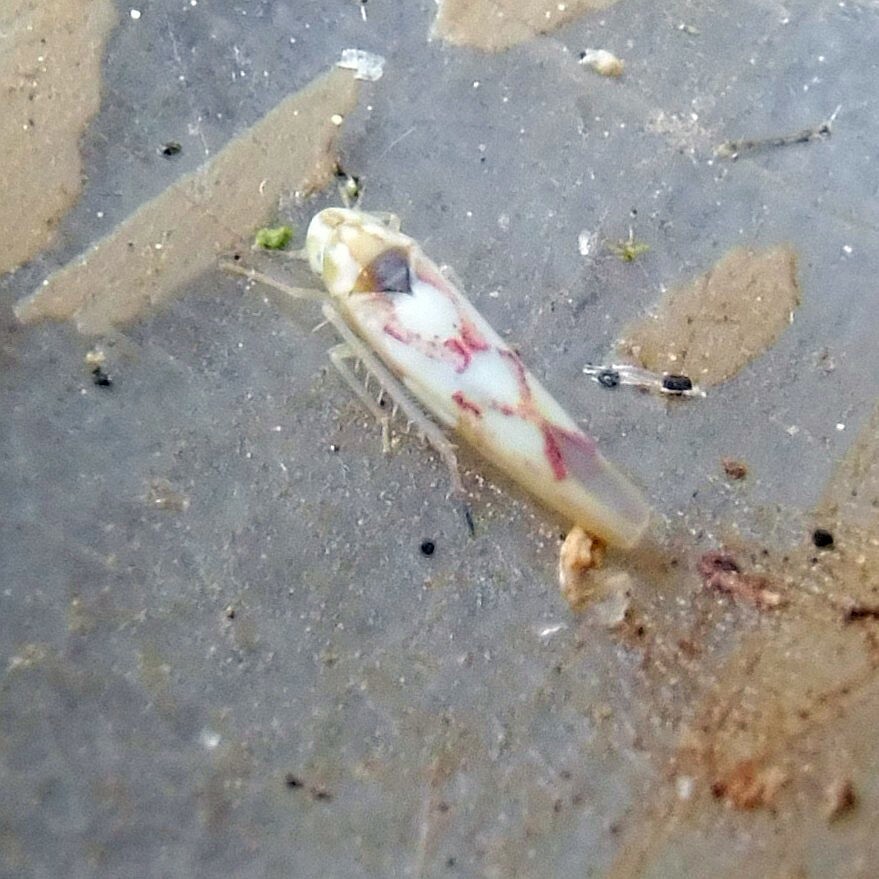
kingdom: Animalia
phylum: Arthropoda
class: Insecta
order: Hemiptera
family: Cicadellidae
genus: Zygina
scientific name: Zygina flammigera
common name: Leafhopper
